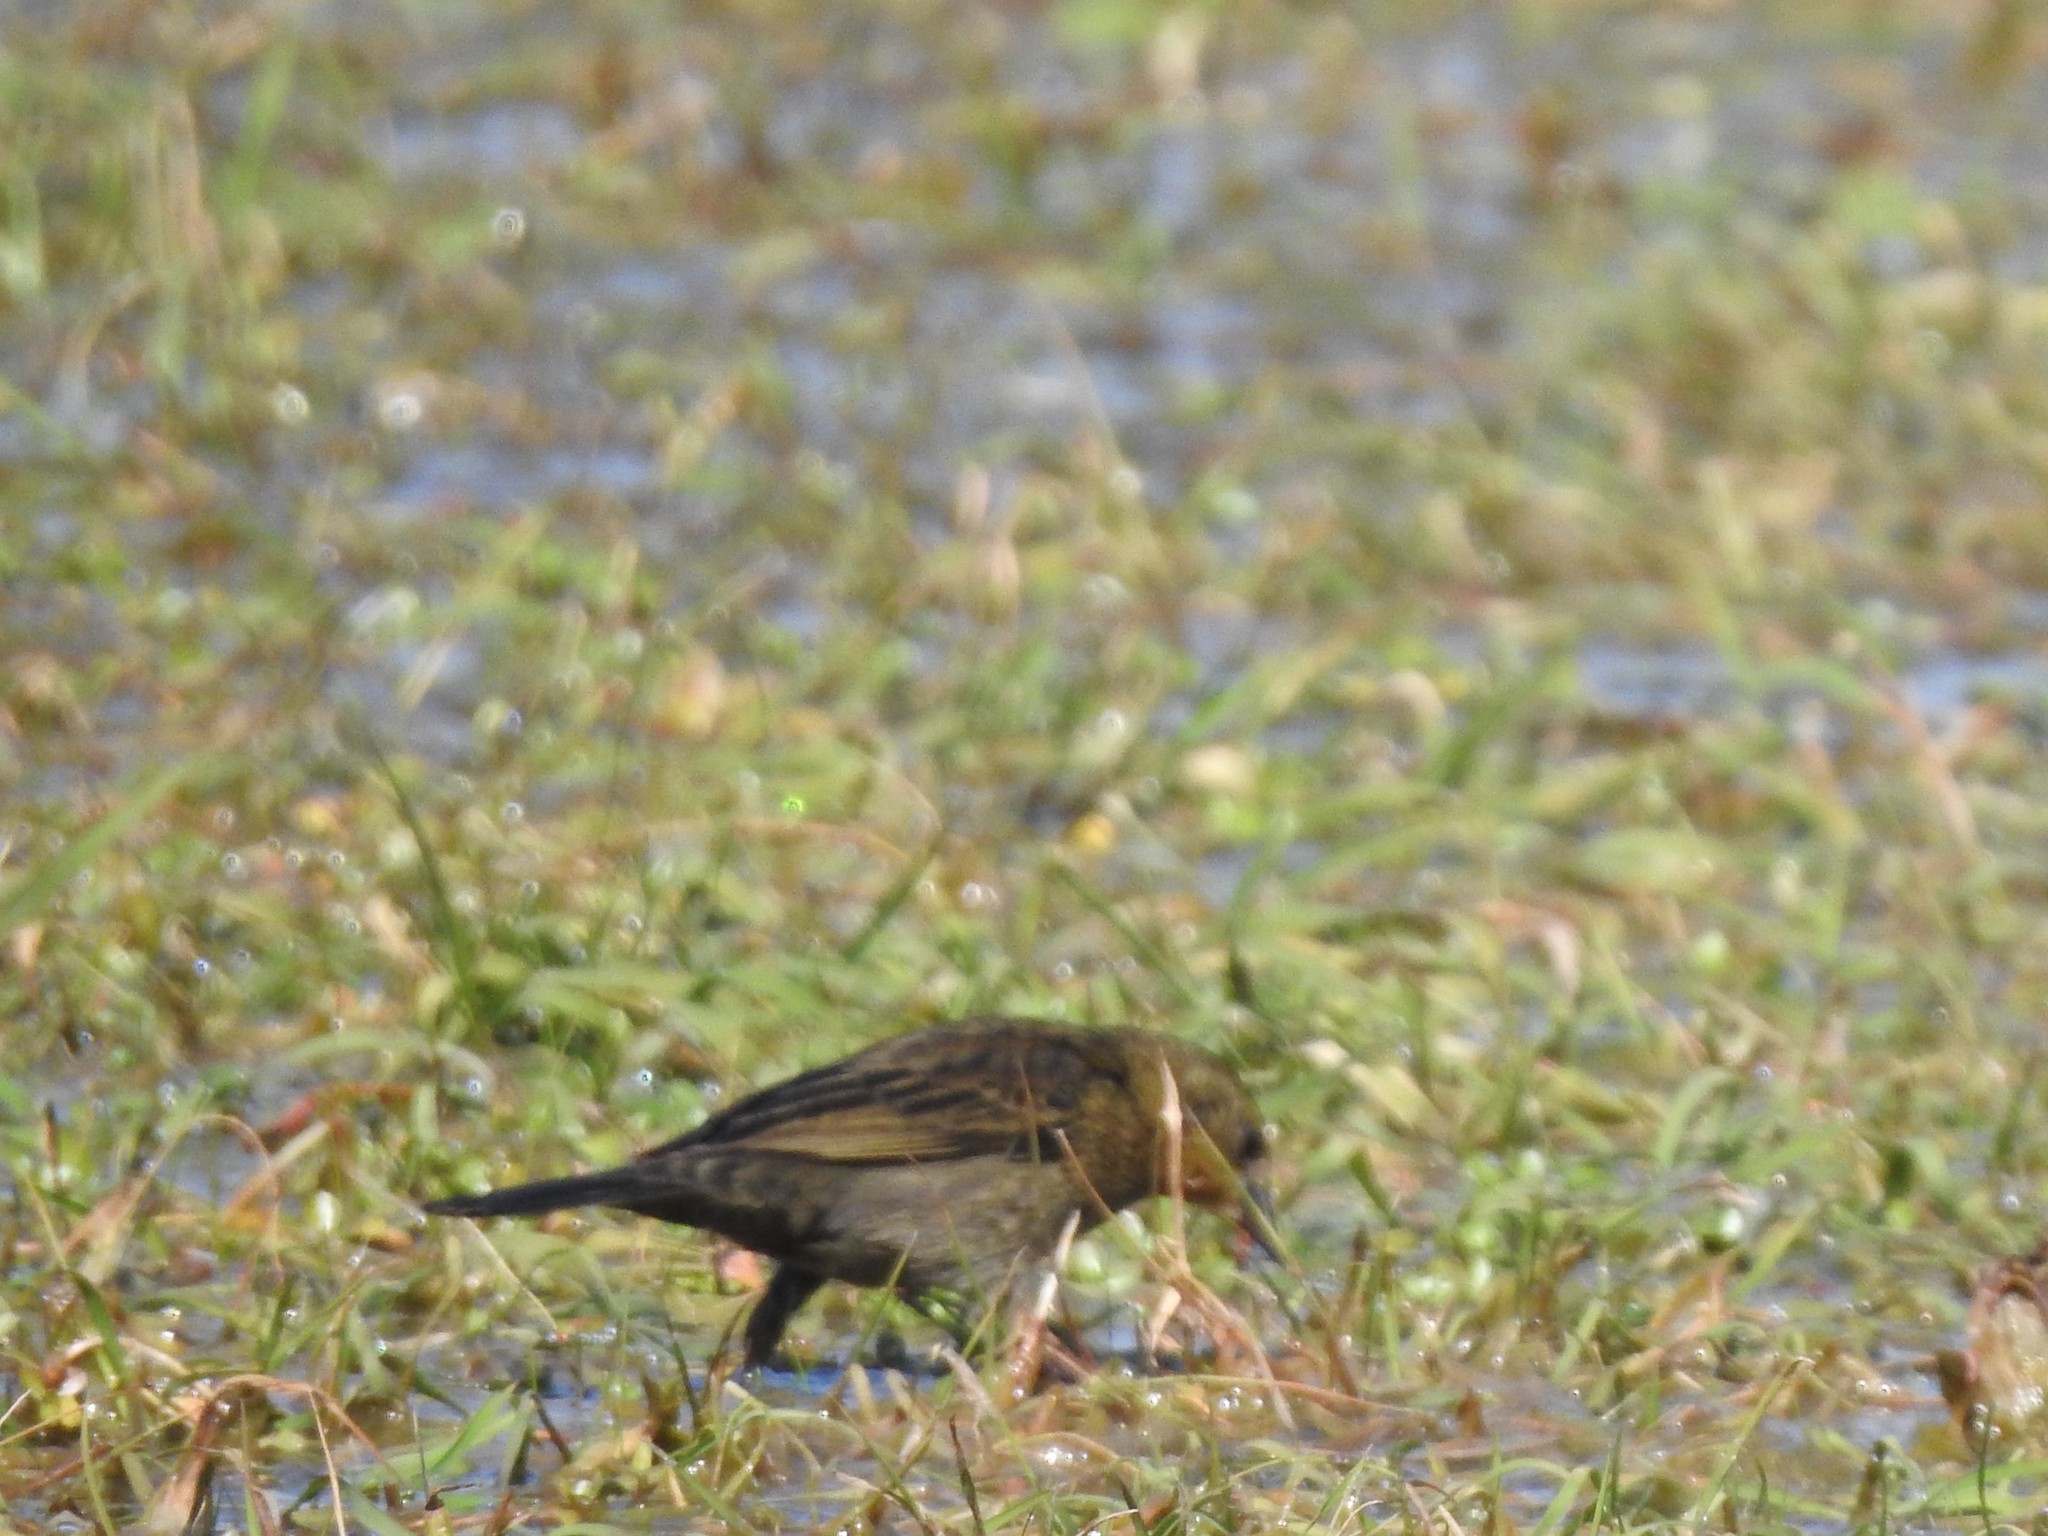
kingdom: Animalia
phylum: Chordata
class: Aves
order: Passeriformes
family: Icteridae
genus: Chrysomus
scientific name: Chrysomus ruficapillus
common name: Chestnut-capped blackbird
